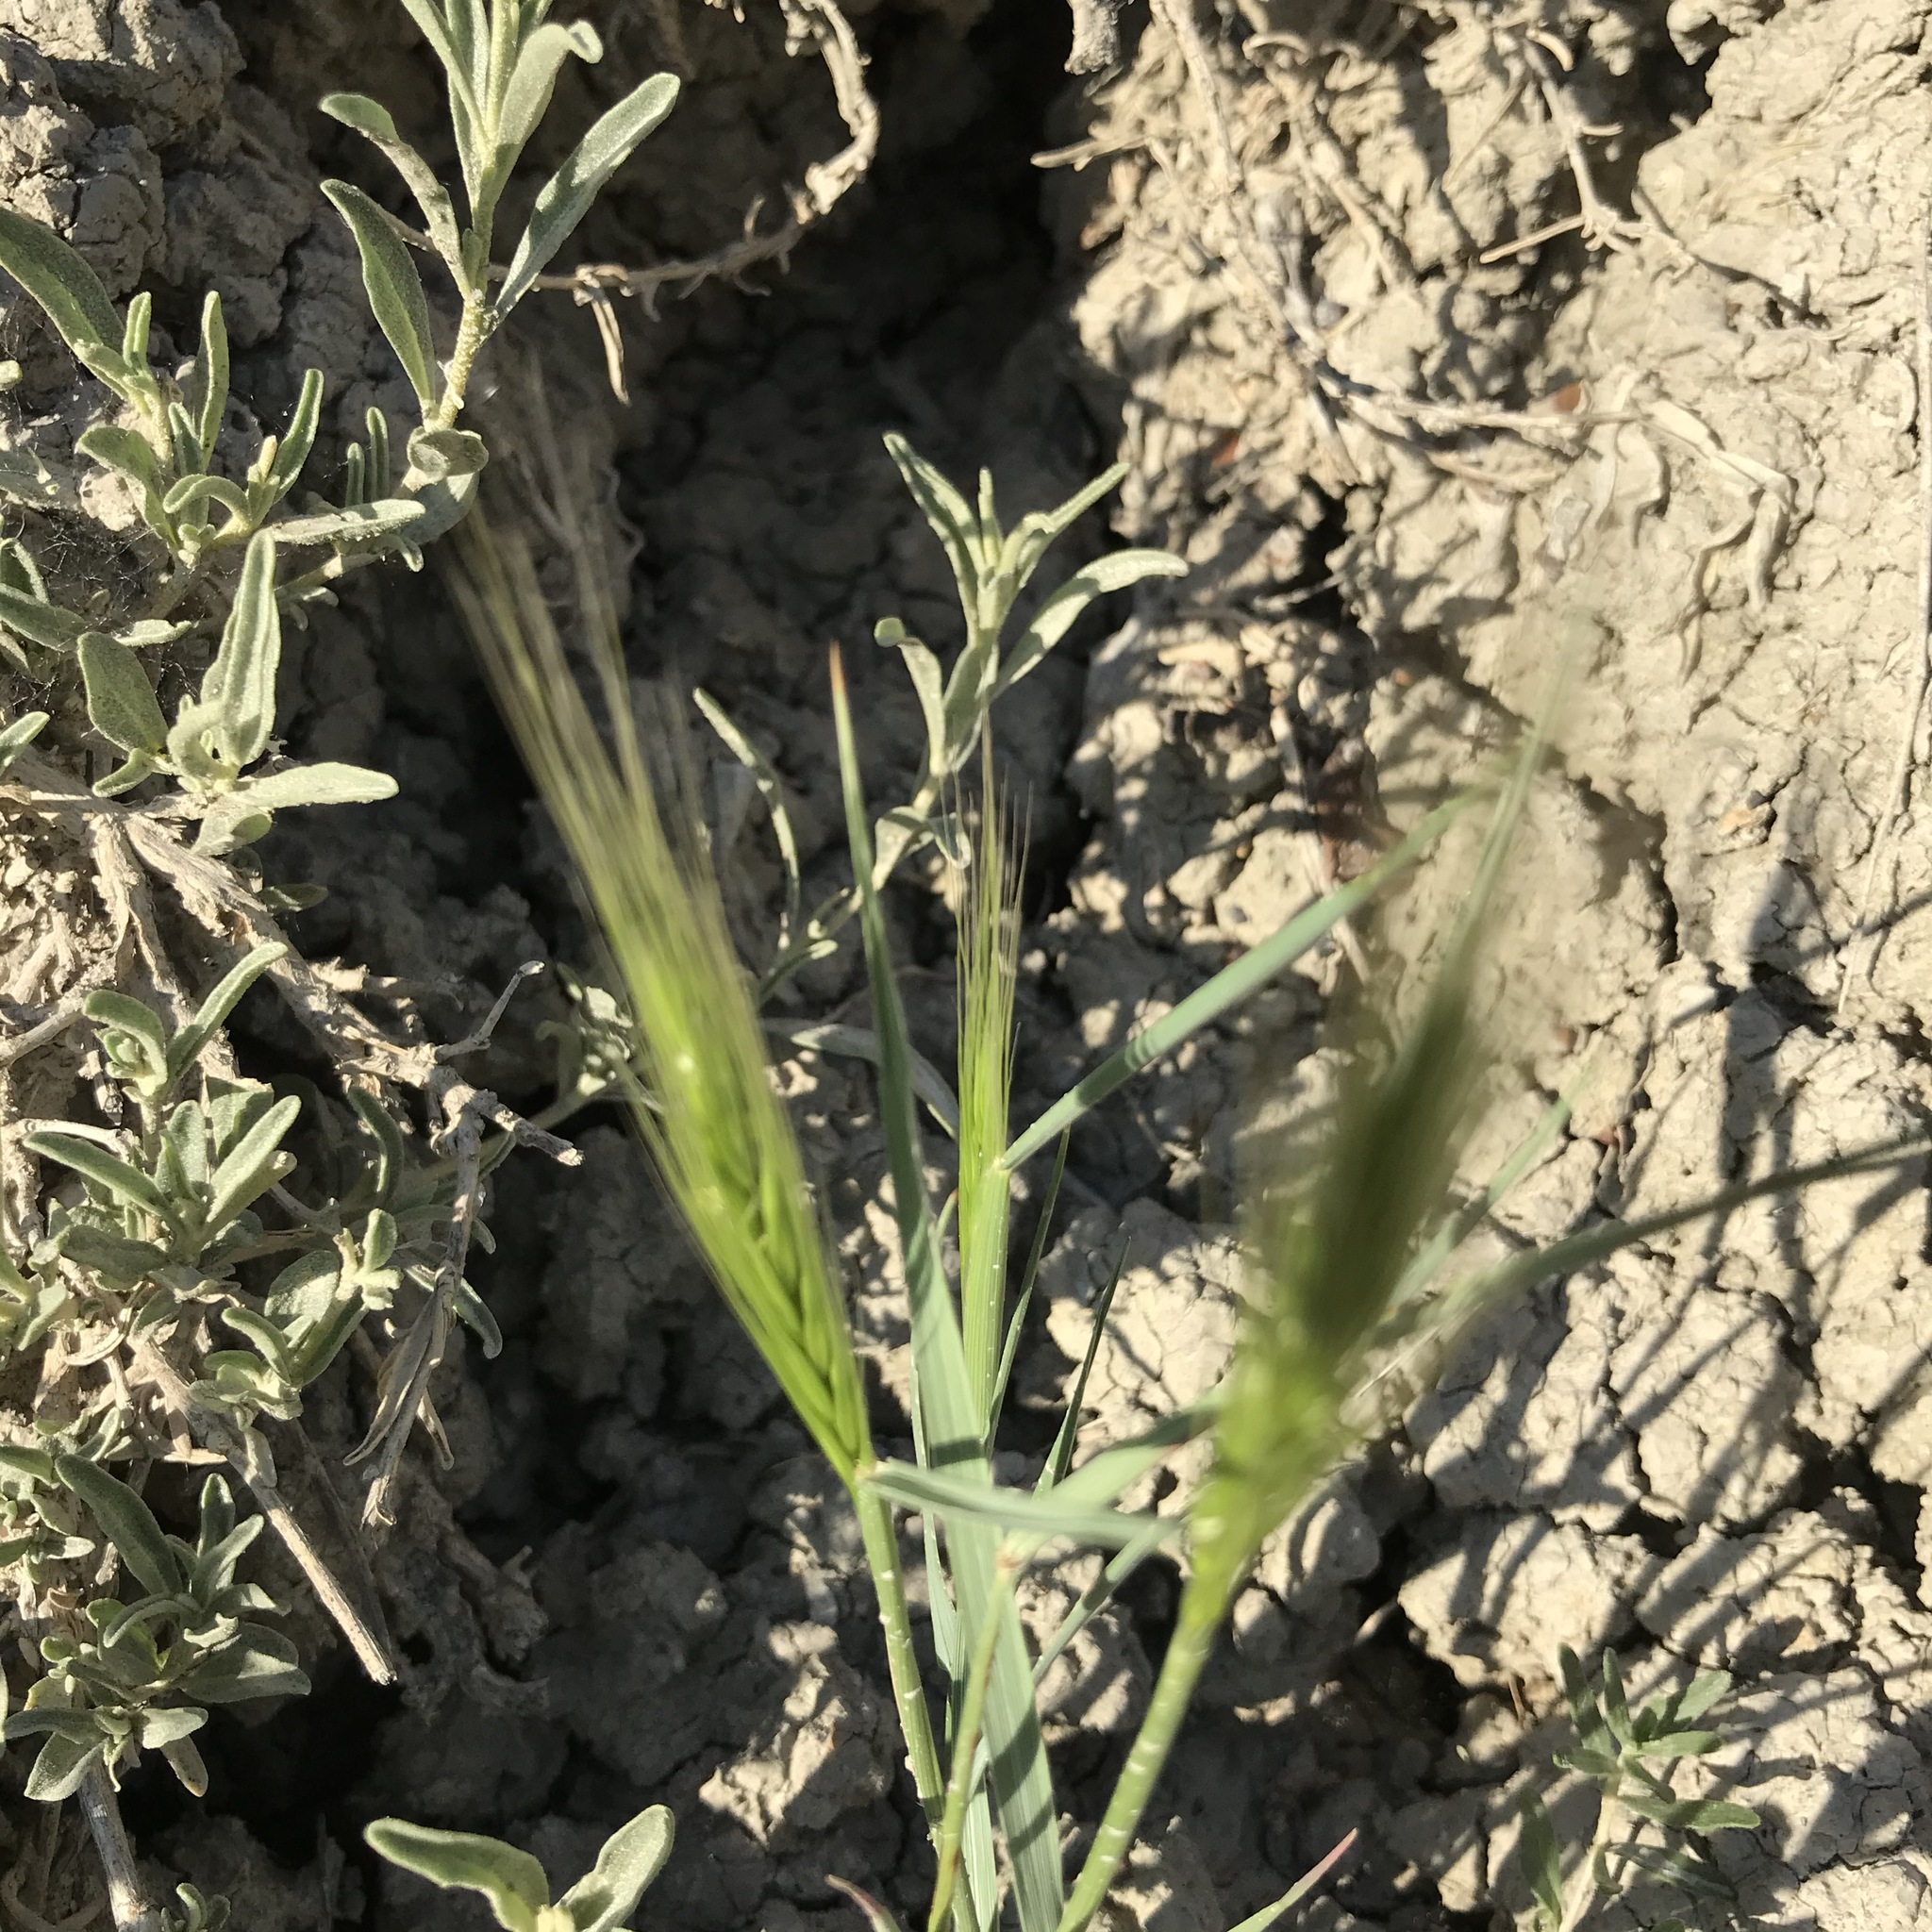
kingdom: Plantae
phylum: Tracheophyta
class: Liliopsida
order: Poales
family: Poaceae
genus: Elymus
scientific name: Elymus elymoides
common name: Bottlebrush squirreltail
